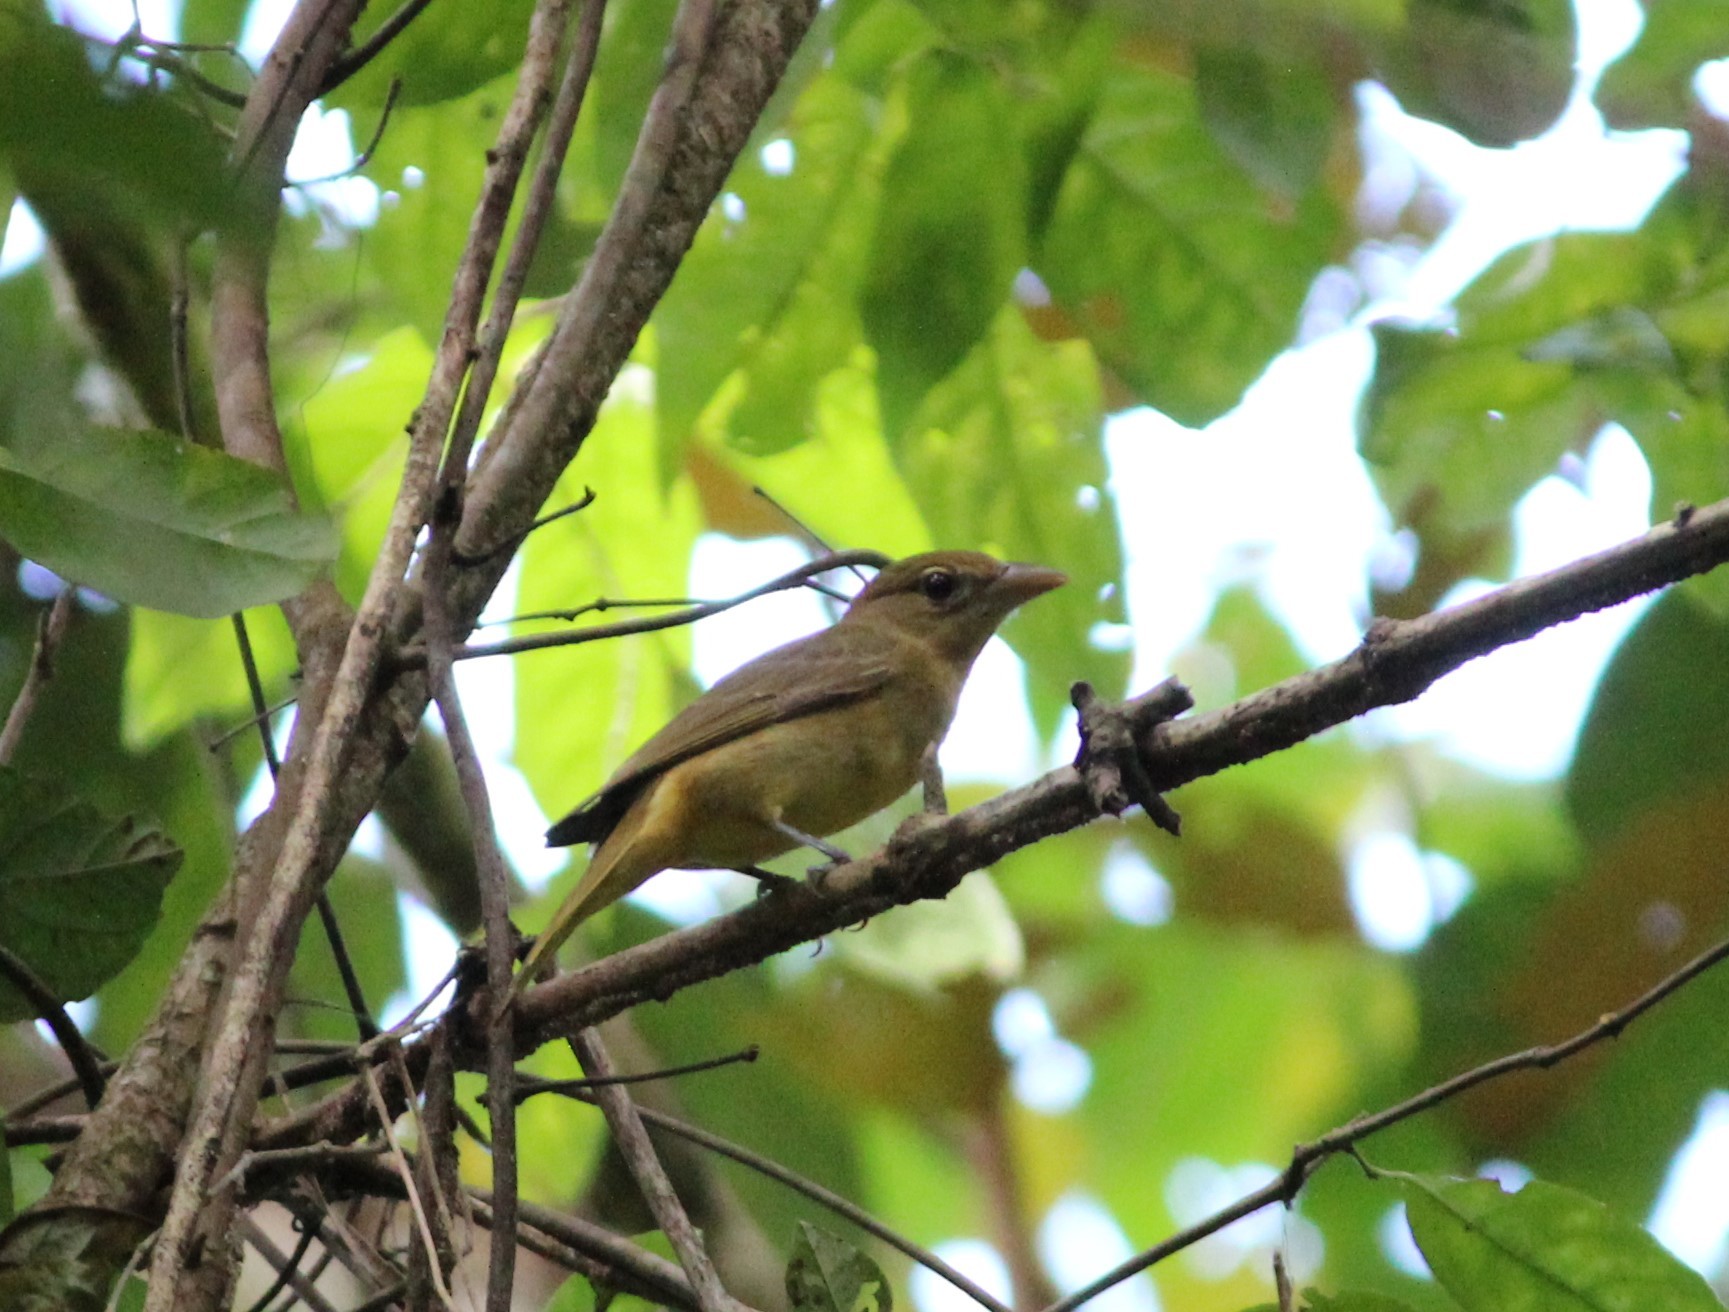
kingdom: Animalia
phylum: Chordata
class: Aves
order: Passeriformes
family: Cardinalidae
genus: Piranga
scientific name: Piranga rubra
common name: Summer tanager
